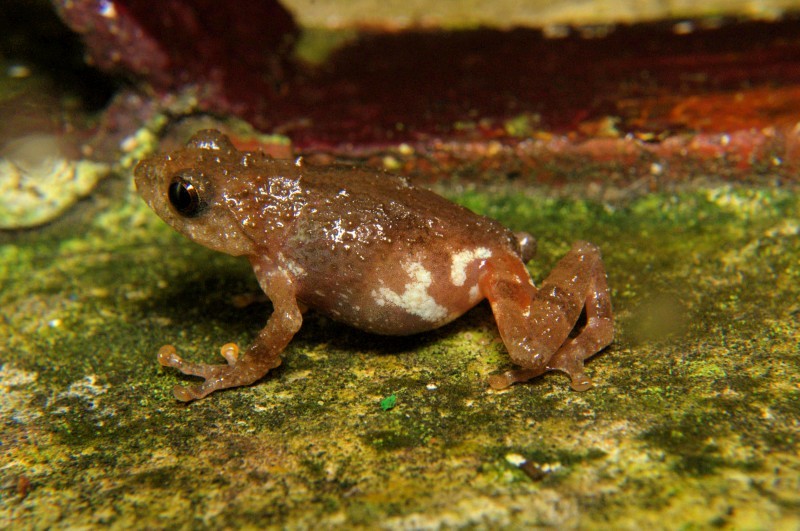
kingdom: Animalia
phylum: Chordata
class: Amphibia
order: Anura
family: Rhacophoridae
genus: Raorchestes
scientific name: Raorchestes shillongensis
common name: Shillong bush frog
